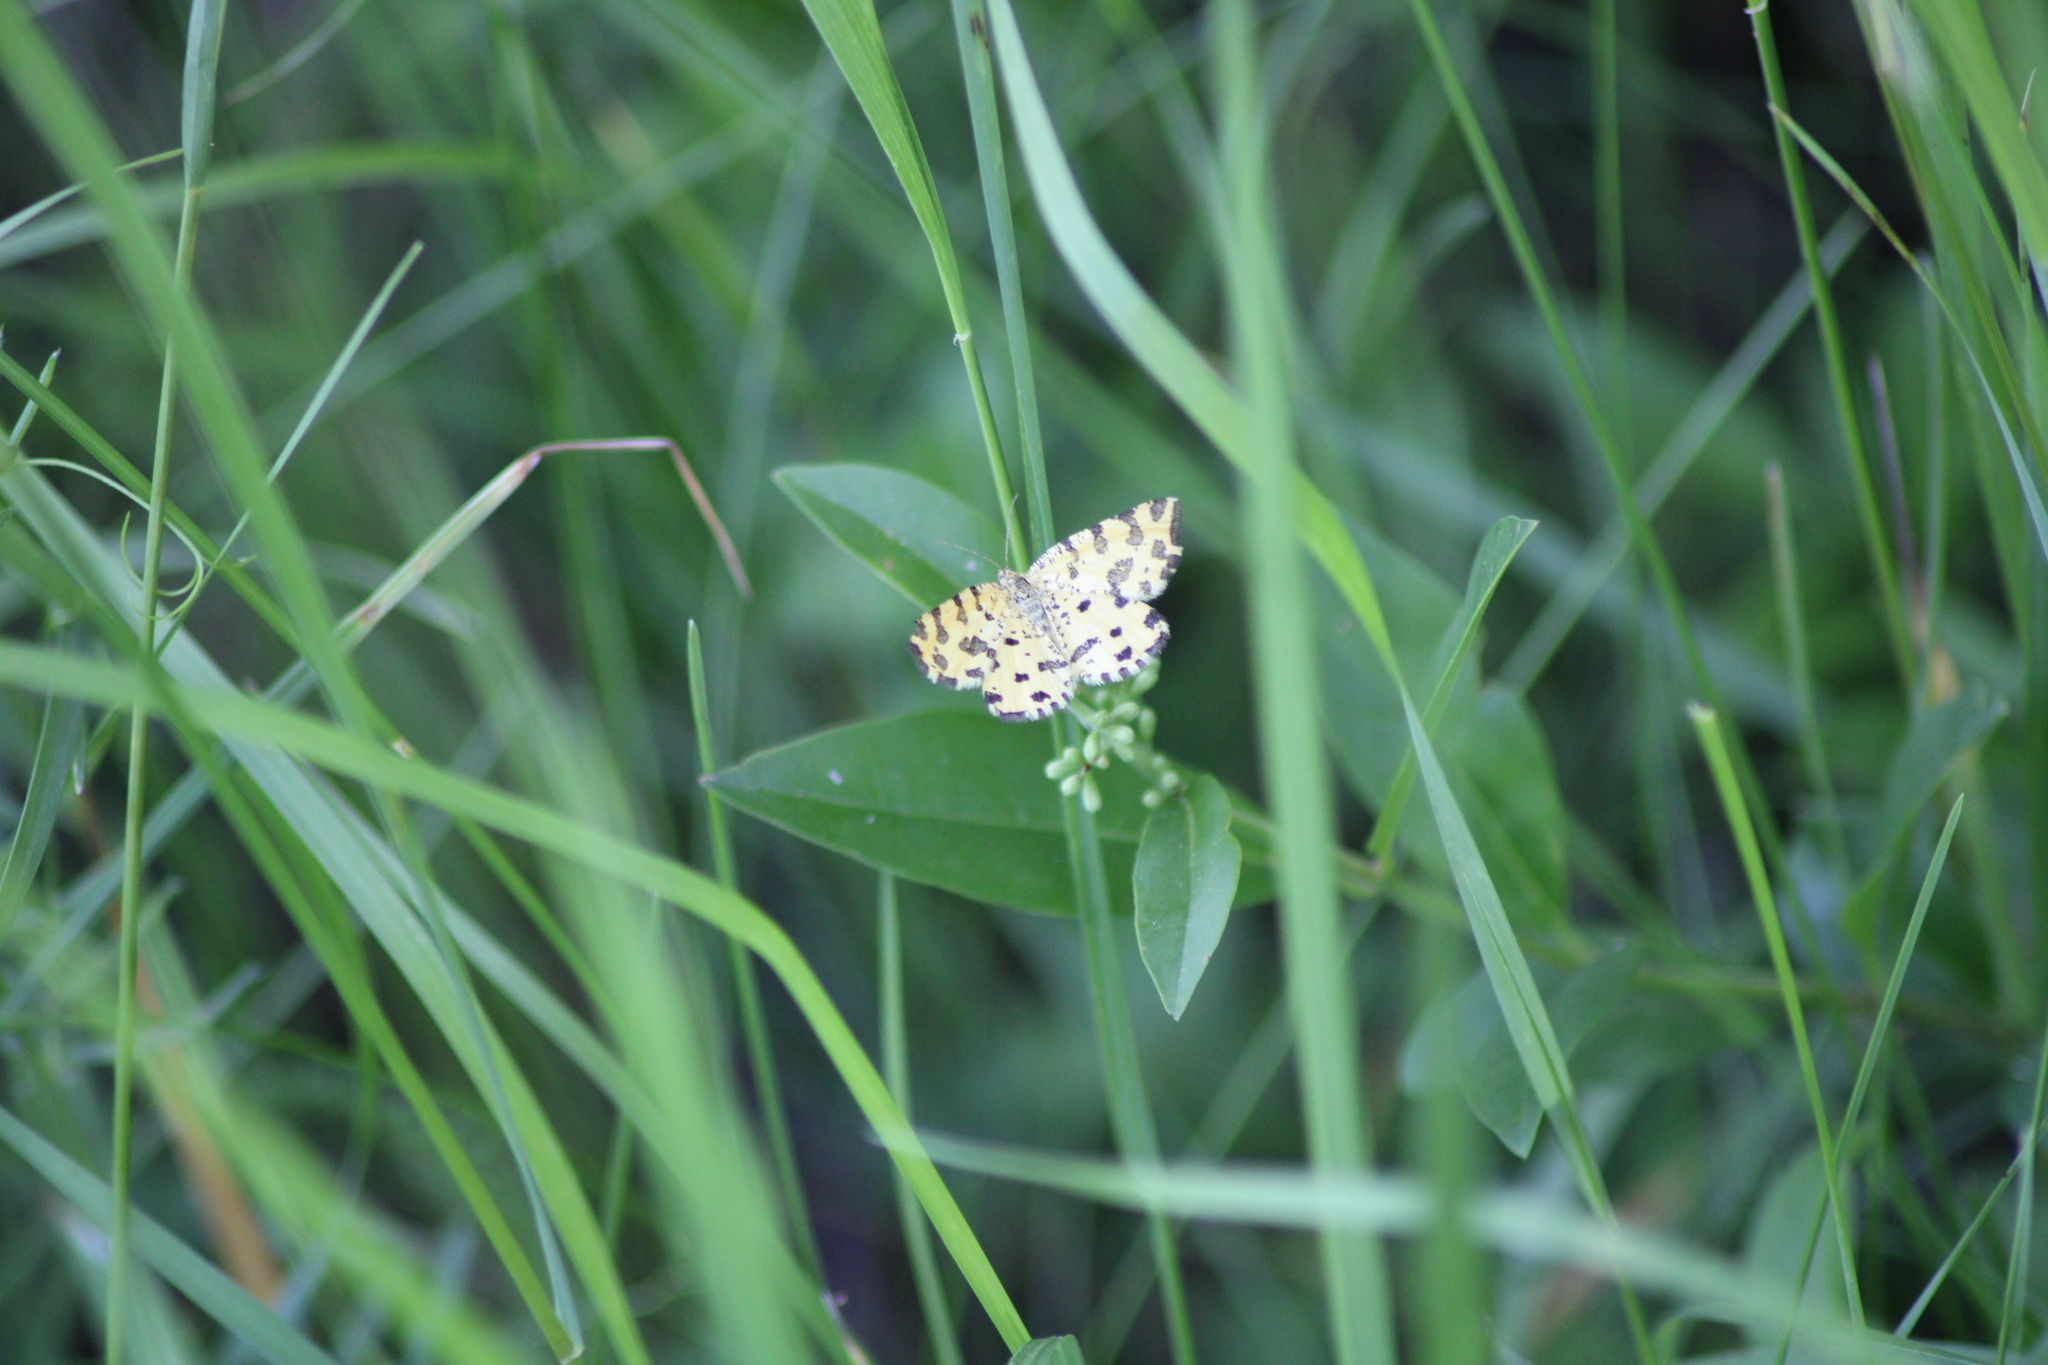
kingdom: Animalia
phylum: Arthropoda
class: Insecta
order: Lepidoptera
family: Geometridae
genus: Pseudopanthera
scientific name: Pseudopanthera macularia
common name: Speckled yellow
